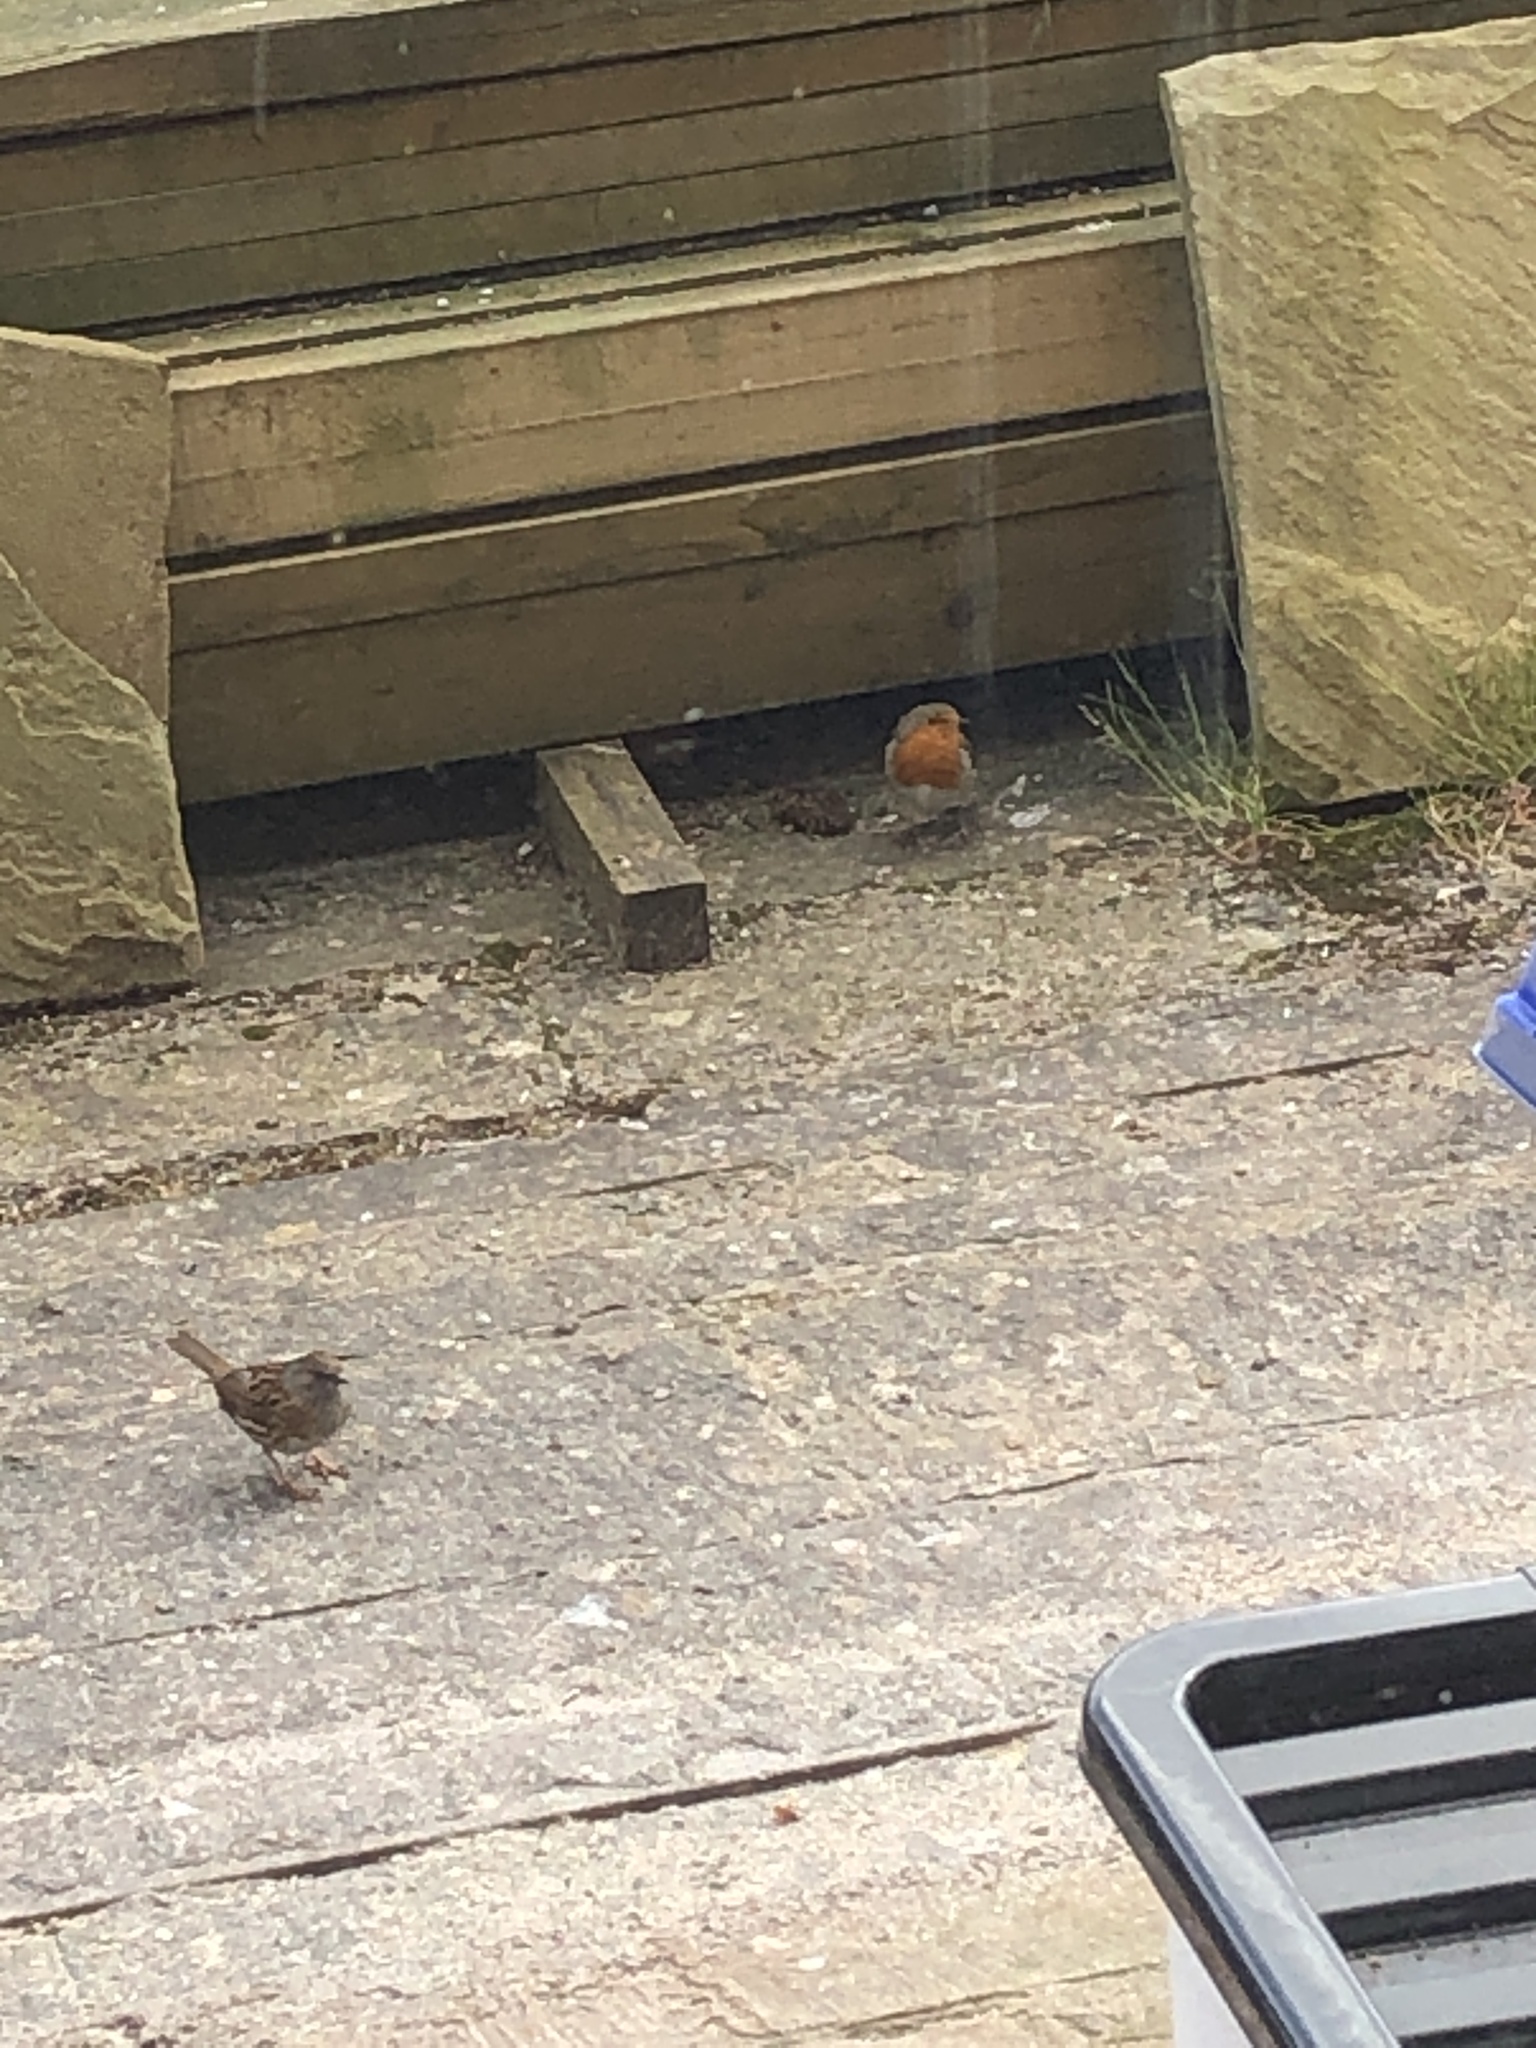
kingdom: Animalia
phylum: Chordata
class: Aves
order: Passeriformes
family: Prunellidae
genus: Prunella
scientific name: Prunella modularis
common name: Dunnock
